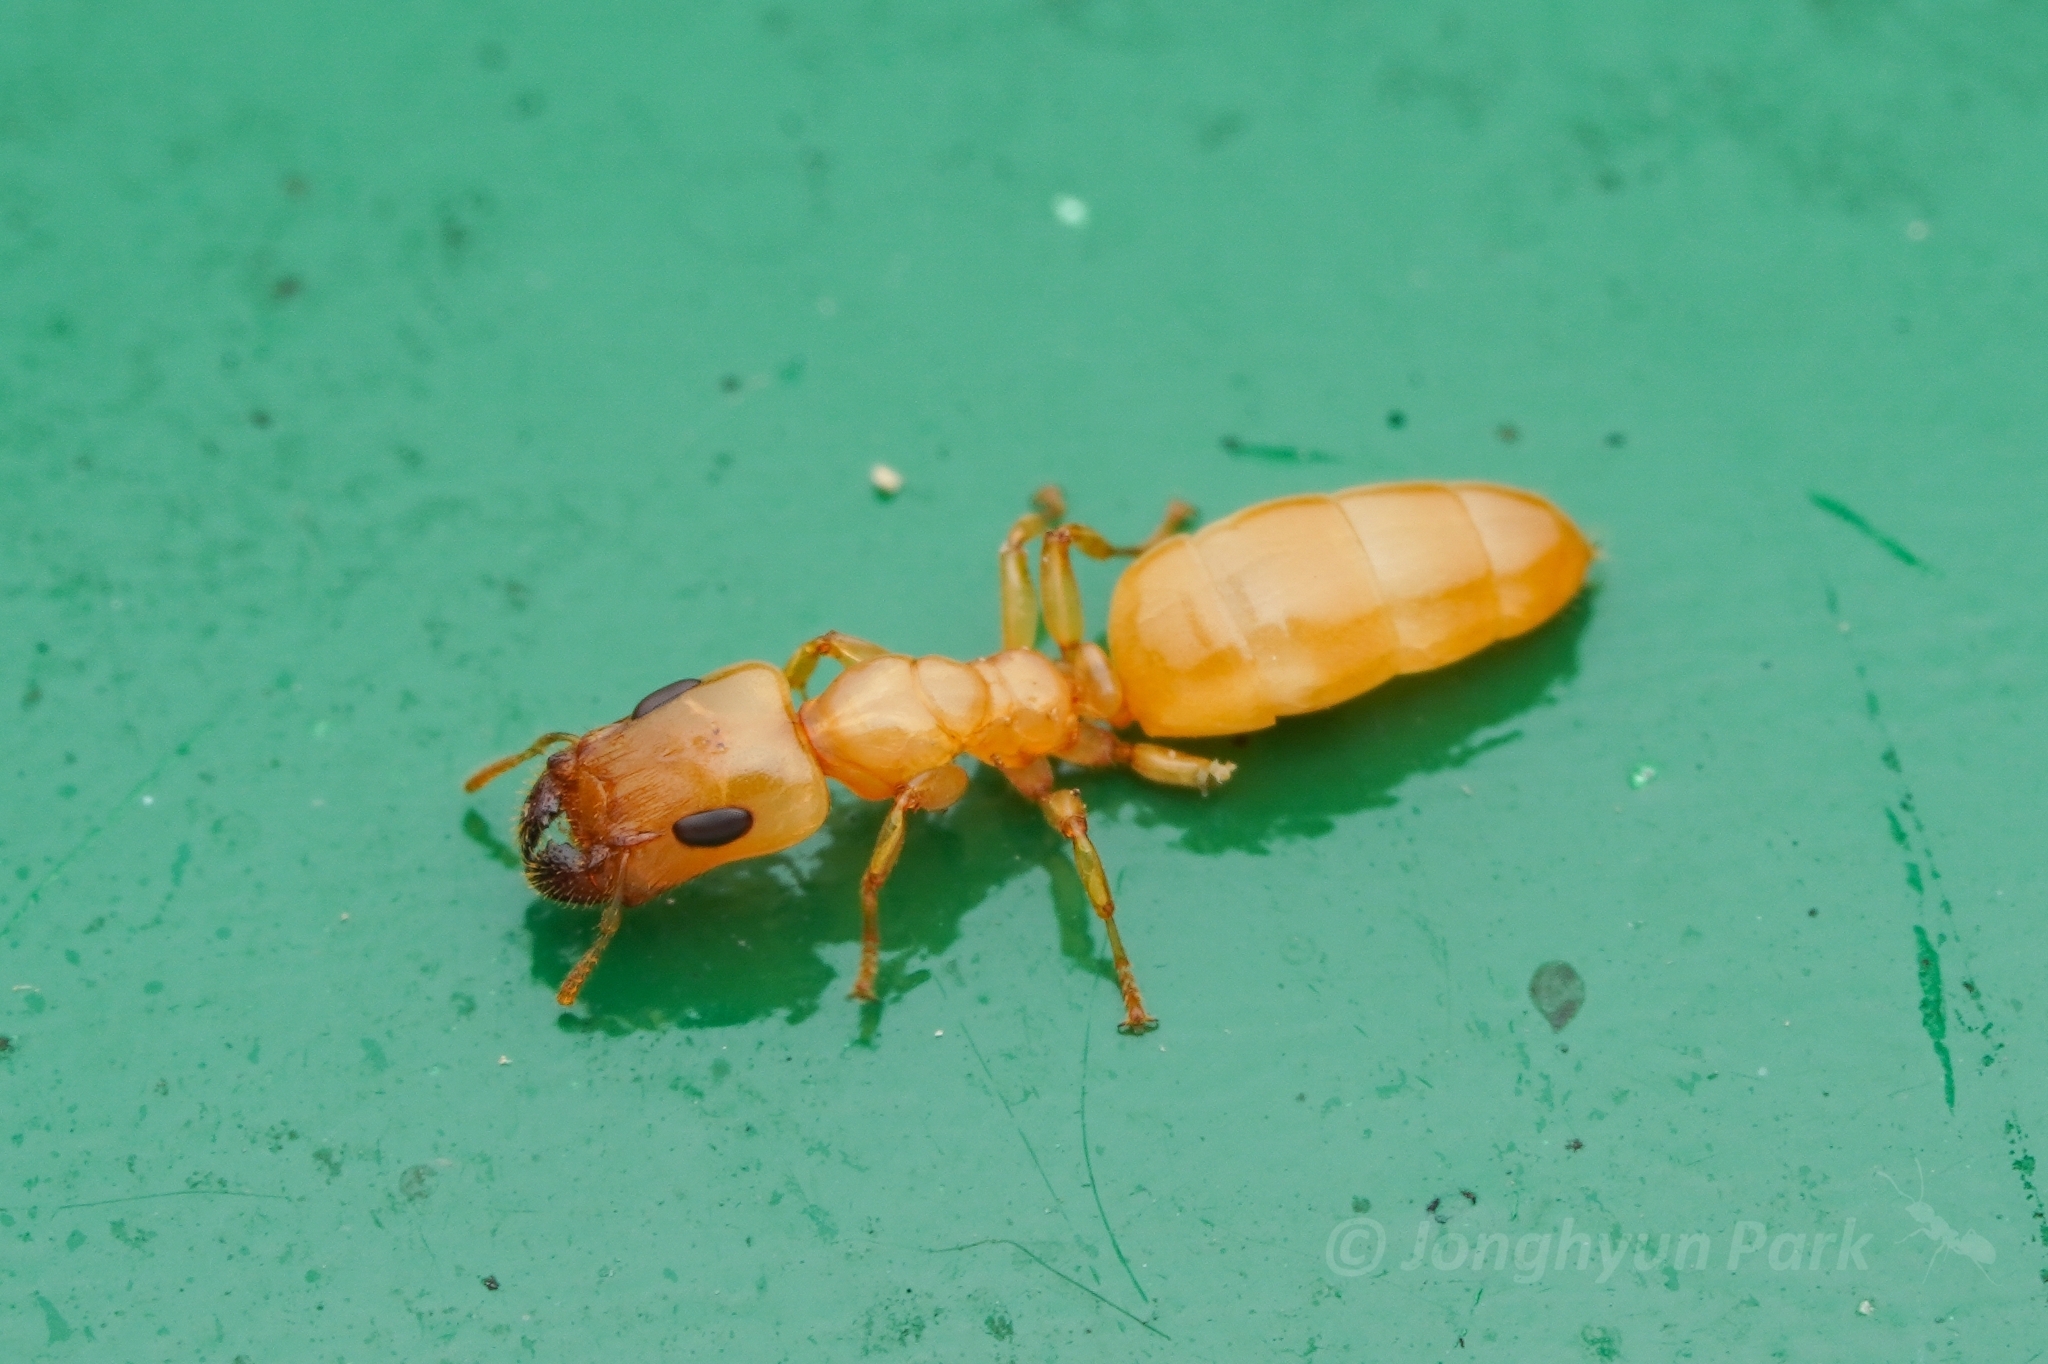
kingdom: Animalia
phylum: Arthropoda
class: Insecta
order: Hymenoptera
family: Formicidae
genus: Gesomyrmex
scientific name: Gesomyrmex howardi
